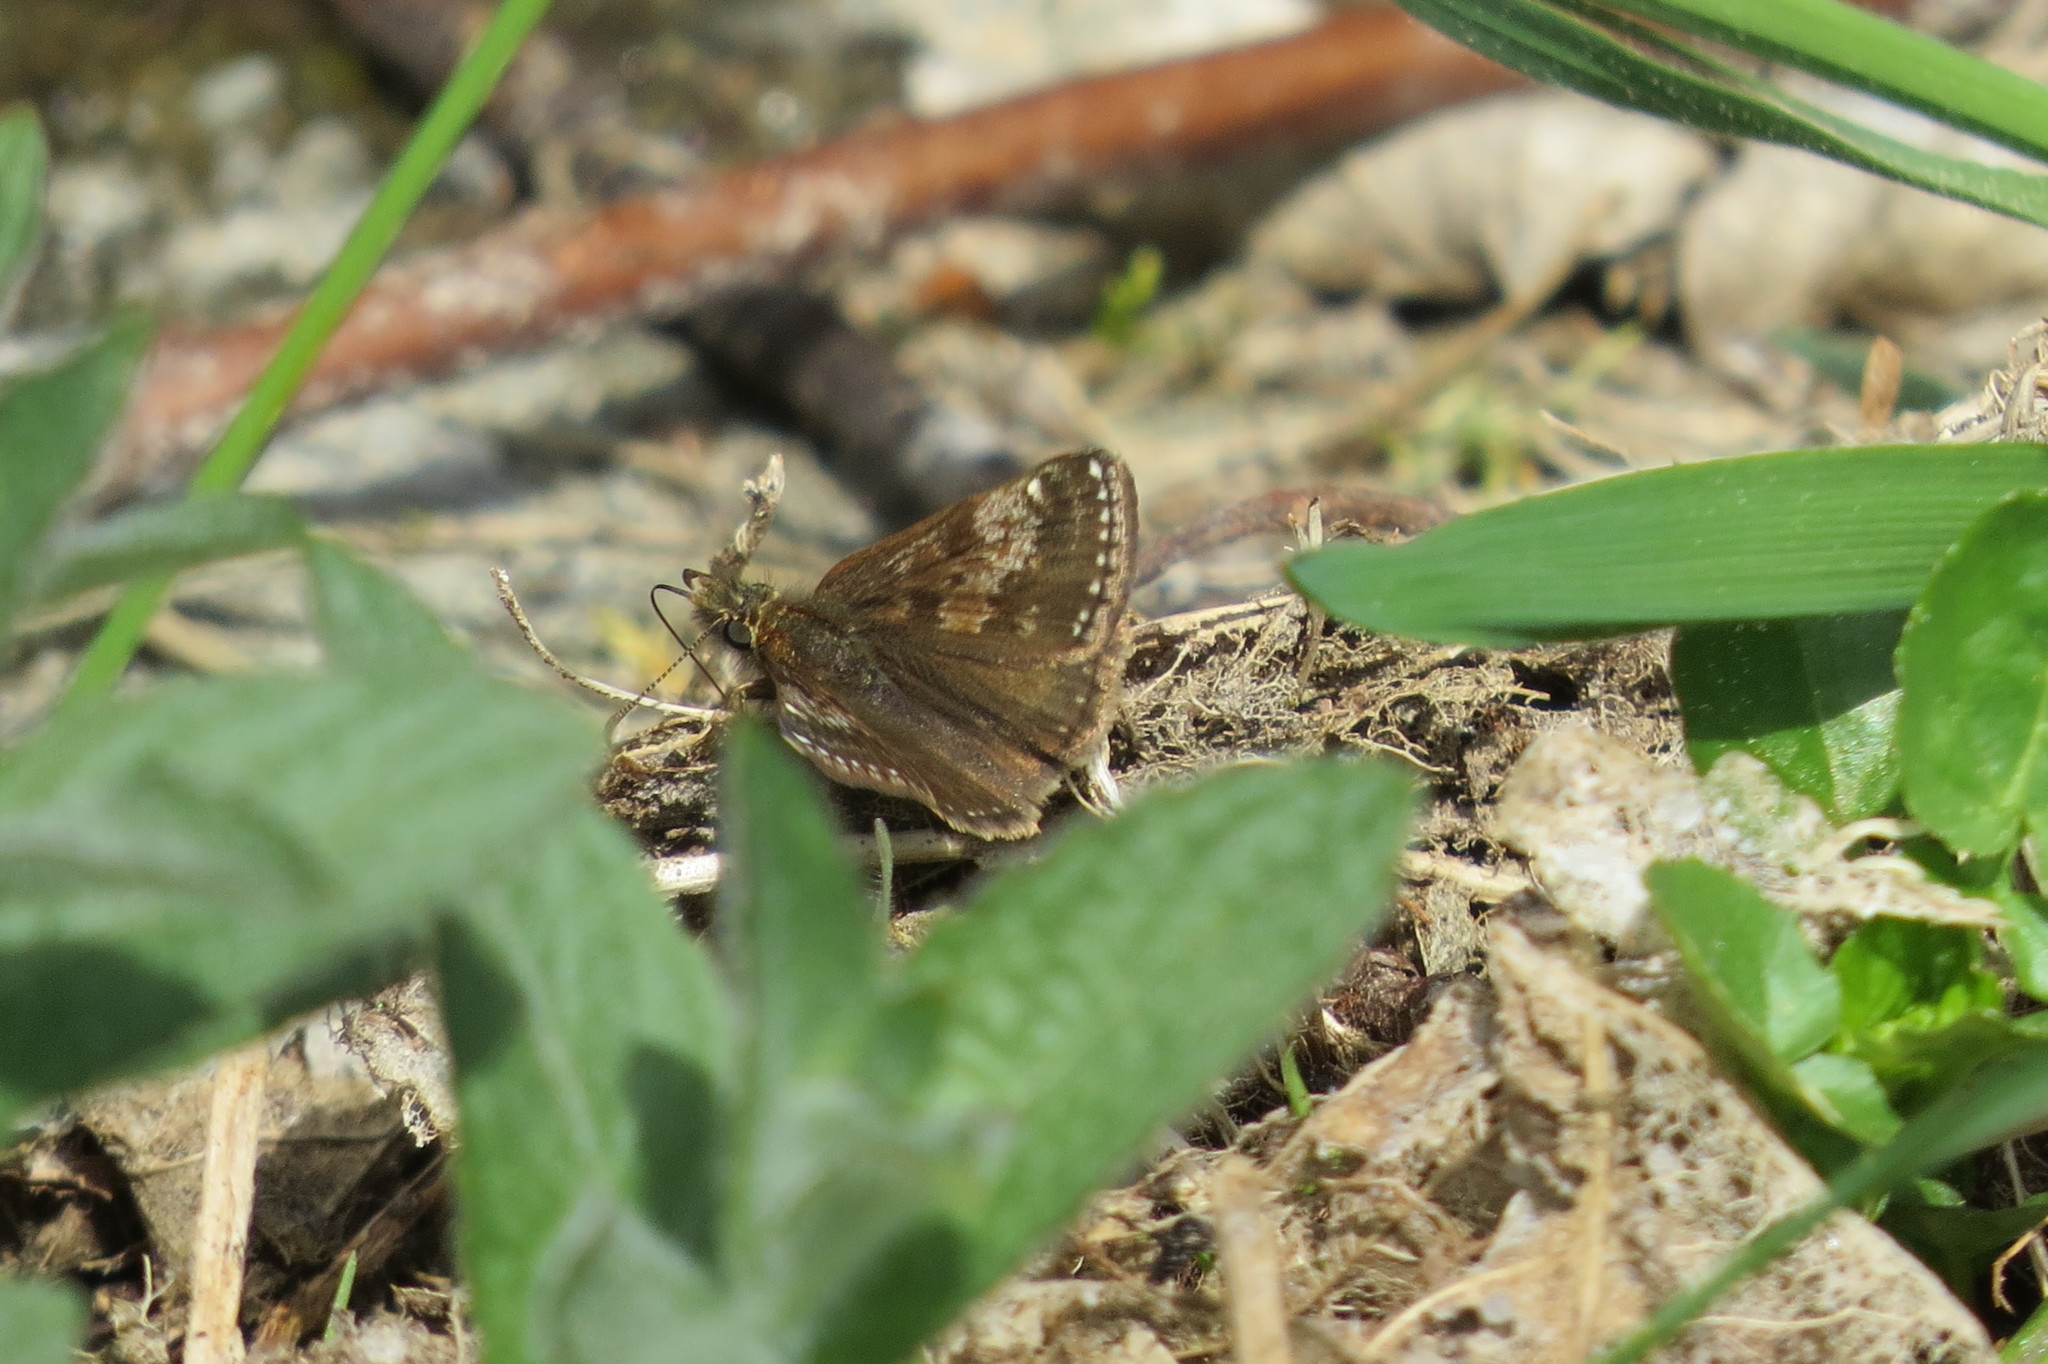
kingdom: Animalia
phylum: Arthropoda
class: Insecta
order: Lepidoptera
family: Hesperiidae
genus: Erynnis
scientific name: Erynnis tages
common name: Dingy skipper
